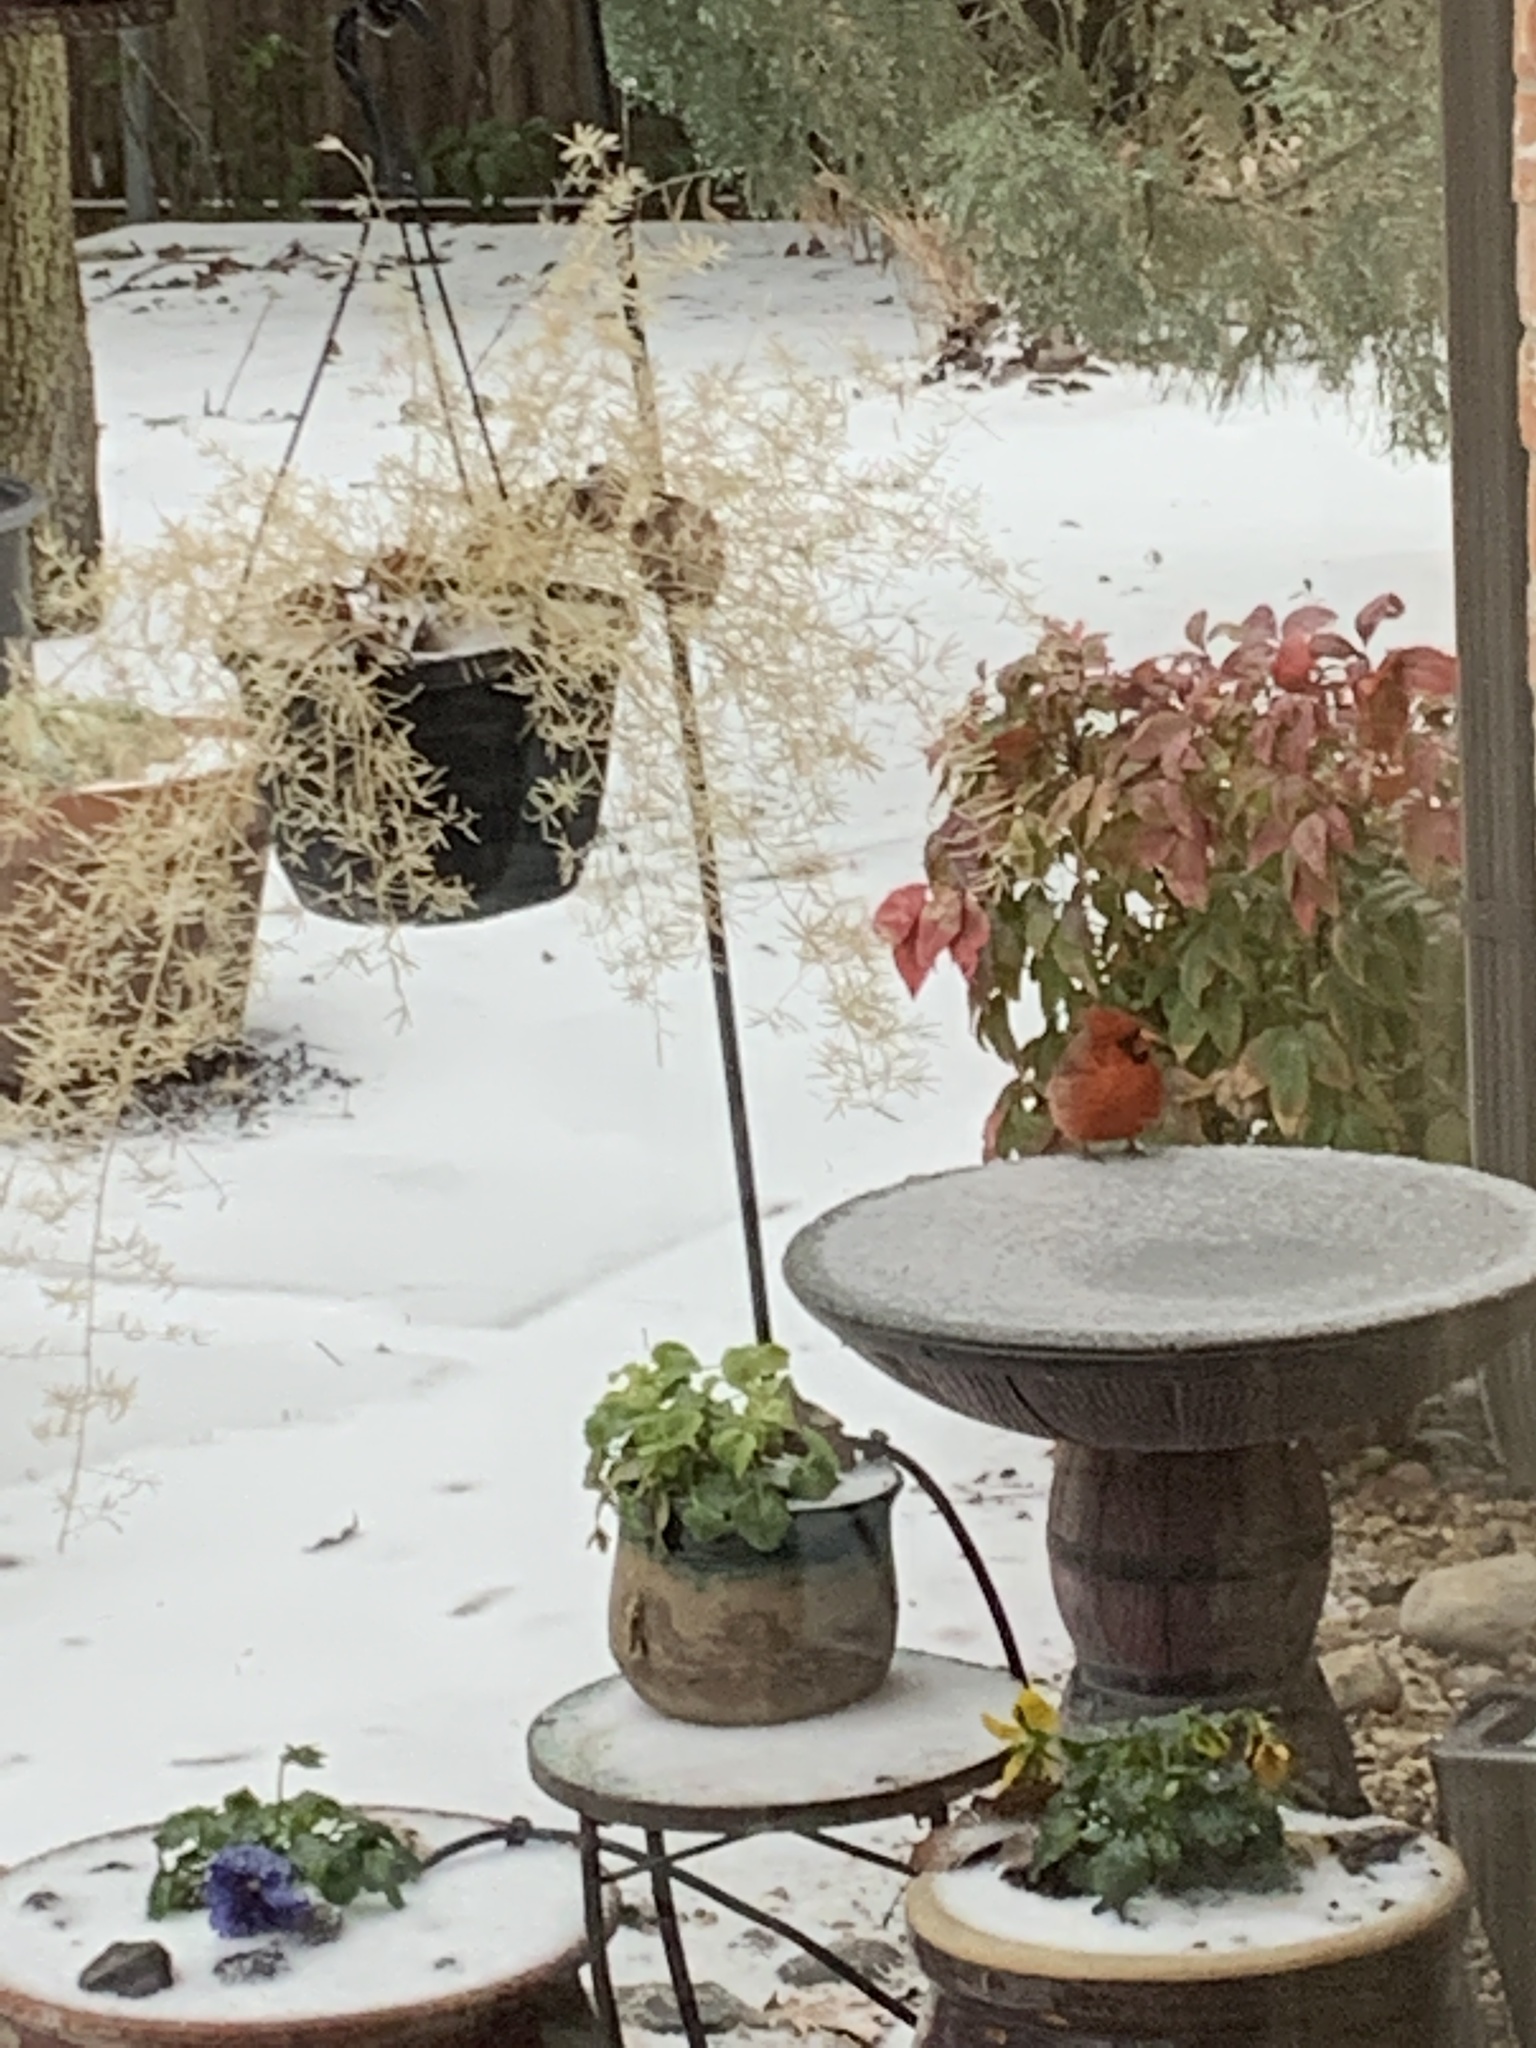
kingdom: Animalia
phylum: Chordata
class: Aves
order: Passeriformes
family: Cardinalidae
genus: Cardinalis
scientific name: Cardinalis cardinalis
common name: Northern cardinal
